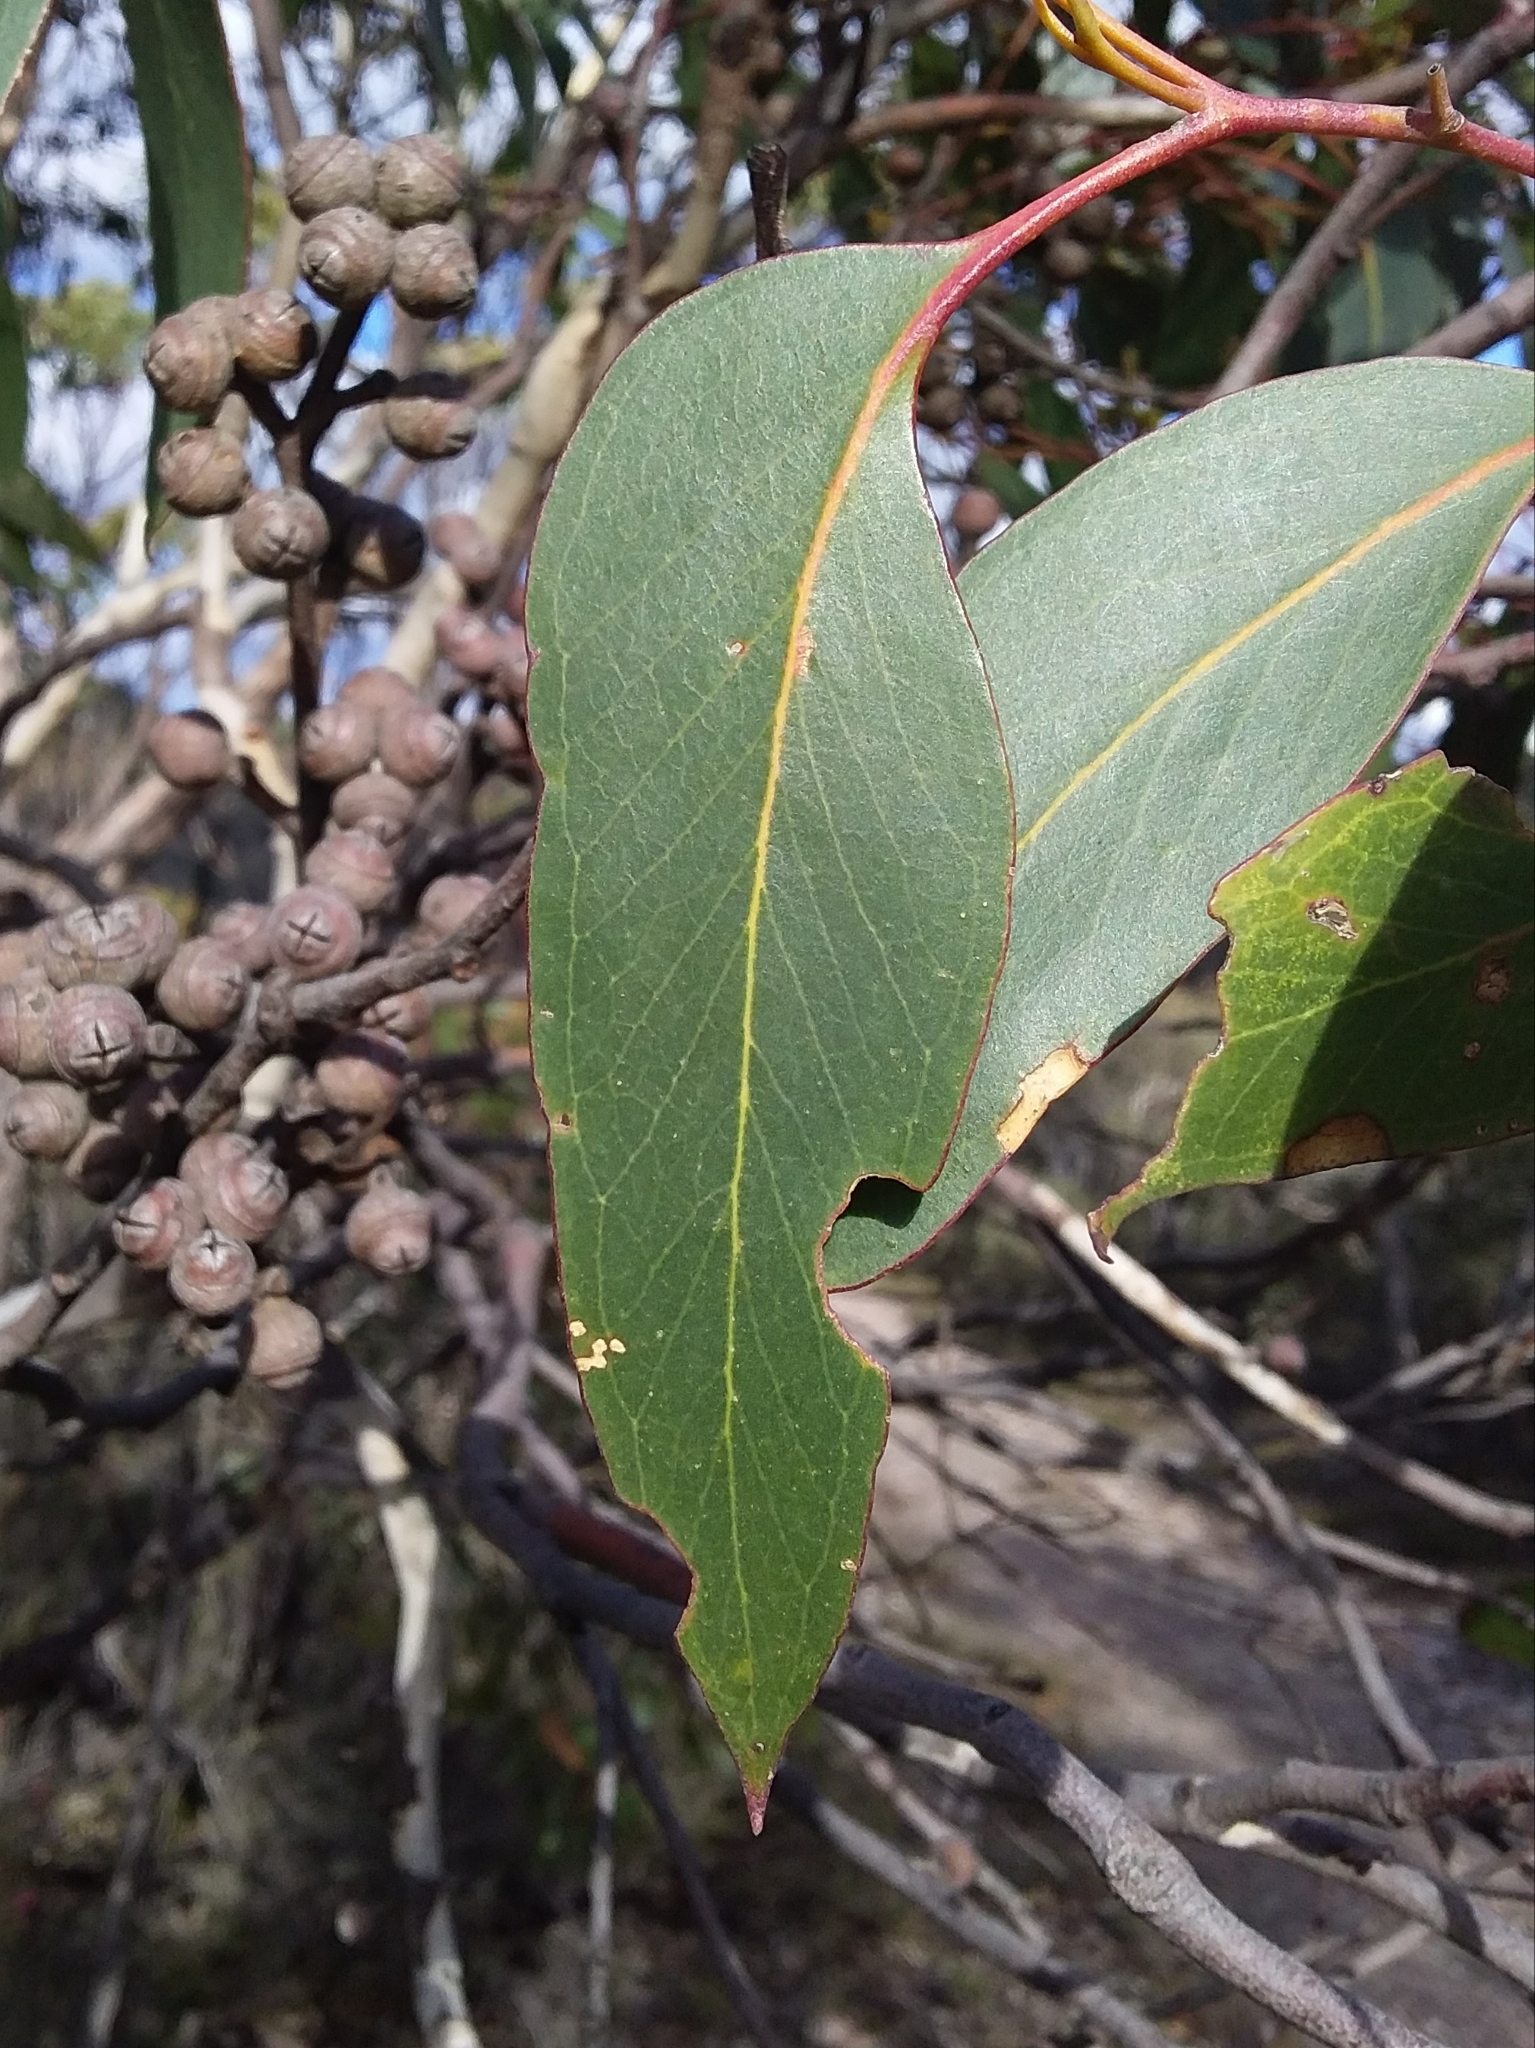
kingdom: Plantae
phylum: Tracheophyta
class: Magnoliopsida
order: Myrtales
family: Myrtaceae
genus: Eucalyptus
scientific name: Eucalyptus baxteri
